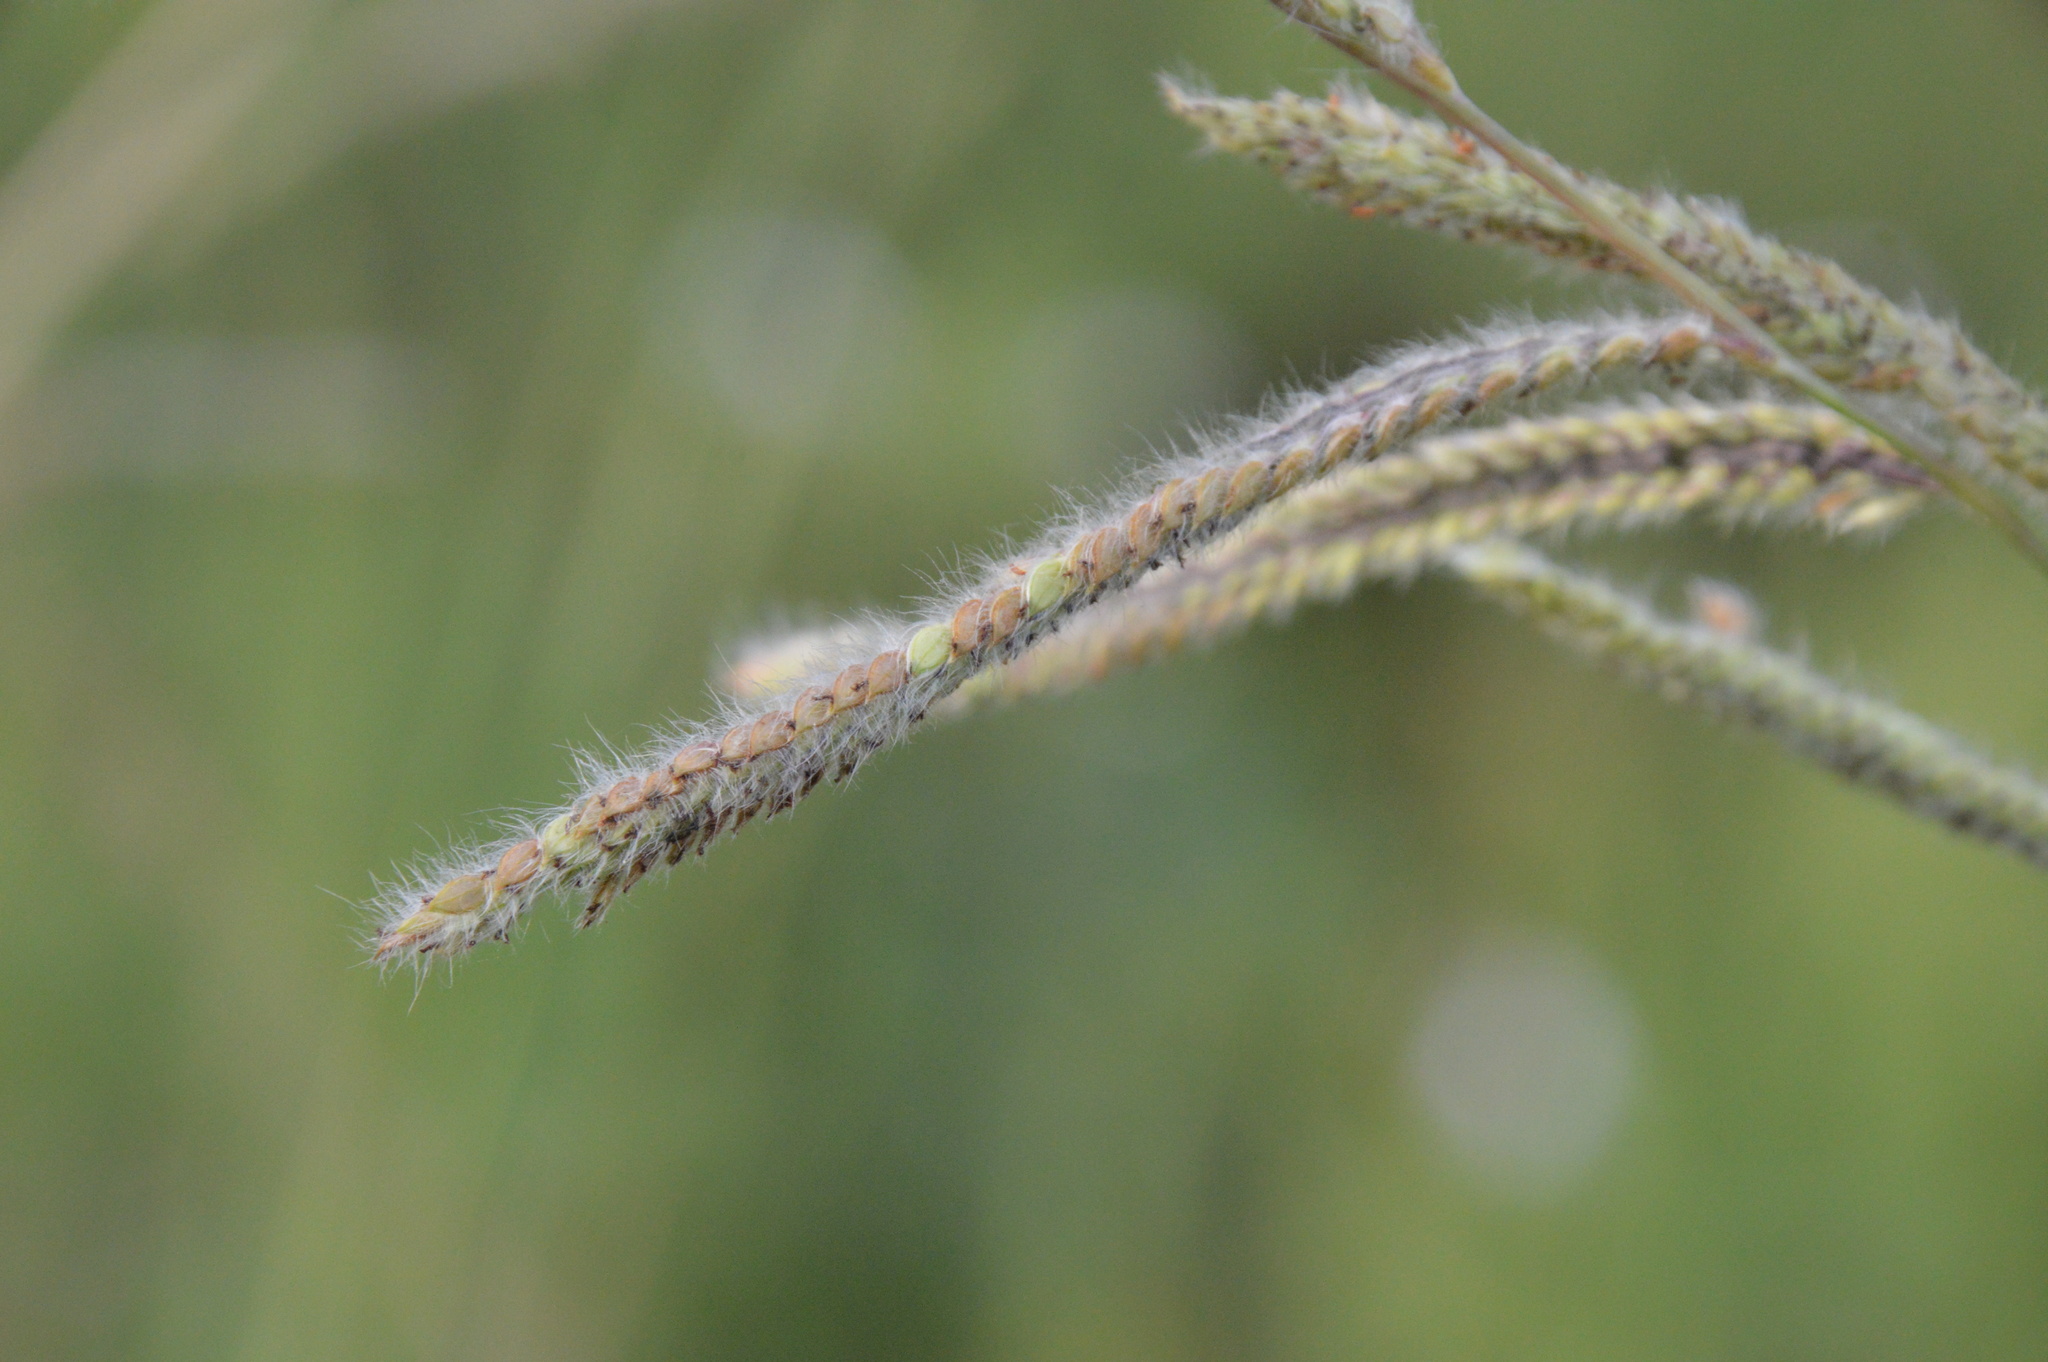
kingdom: Plantae
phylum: Tracheophyta
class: Liliopsida
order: Poales
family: Poaceae
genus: Paspalum
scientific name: Paspalum urvillei
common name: Vasey's grass
